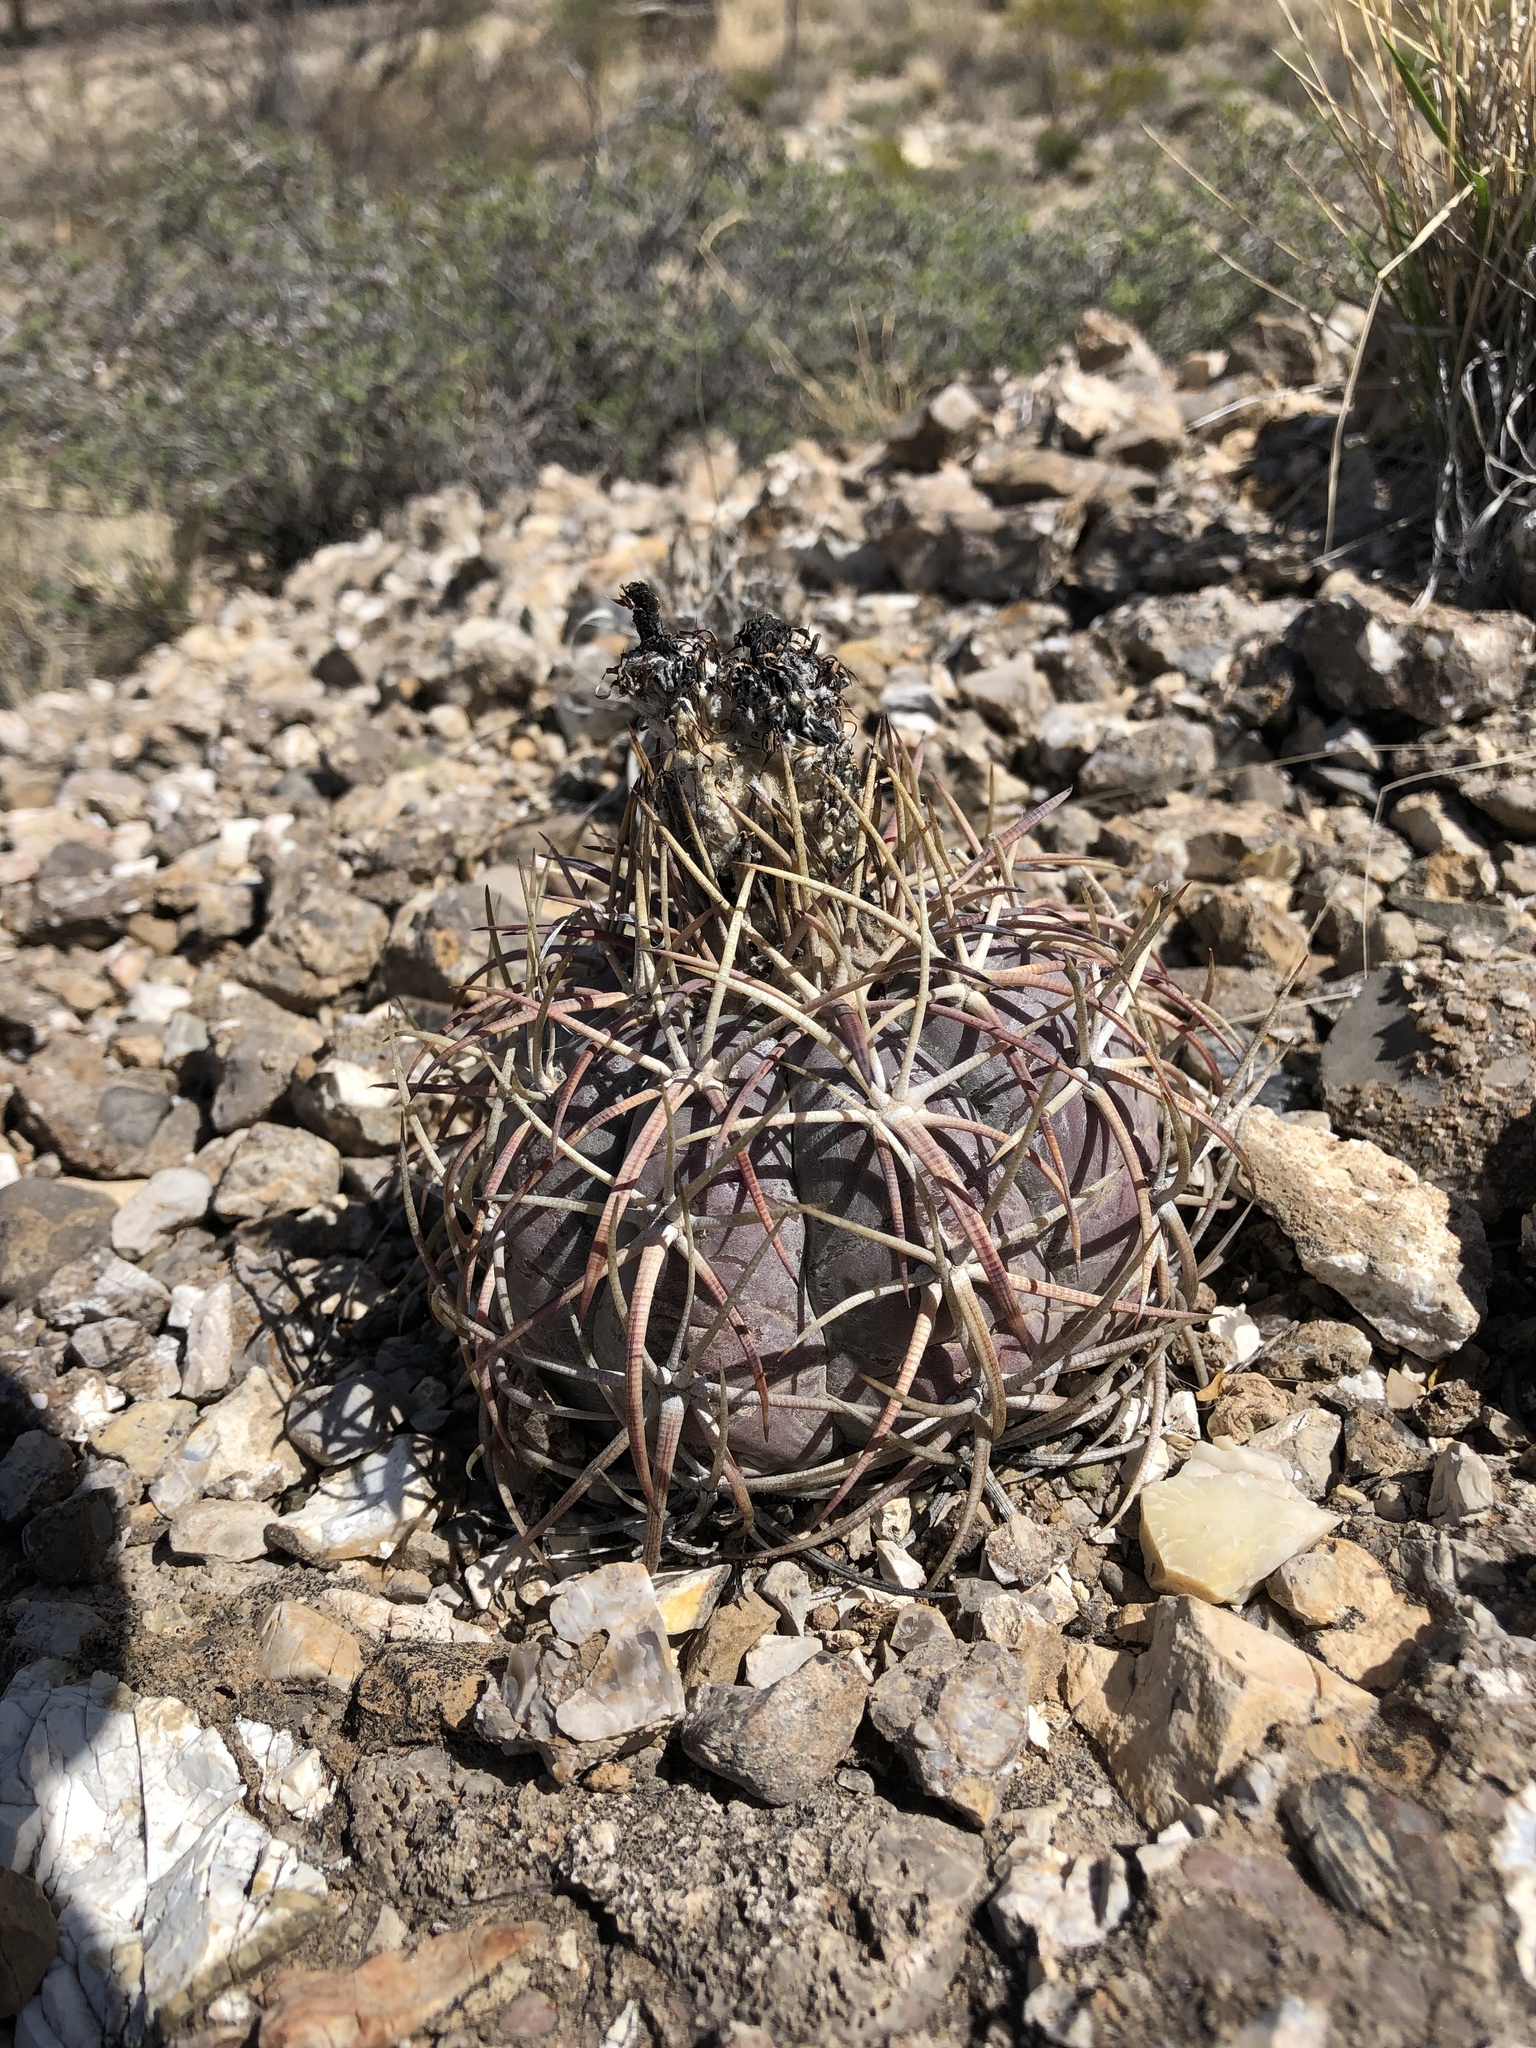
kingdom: Plantae
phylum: Tracheophyta
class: Magnoliopsida
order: Caryophyllales
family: Cactaceae
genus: Echinocactus
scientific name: Echinocactus horizonthalonius
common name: Devilshead
